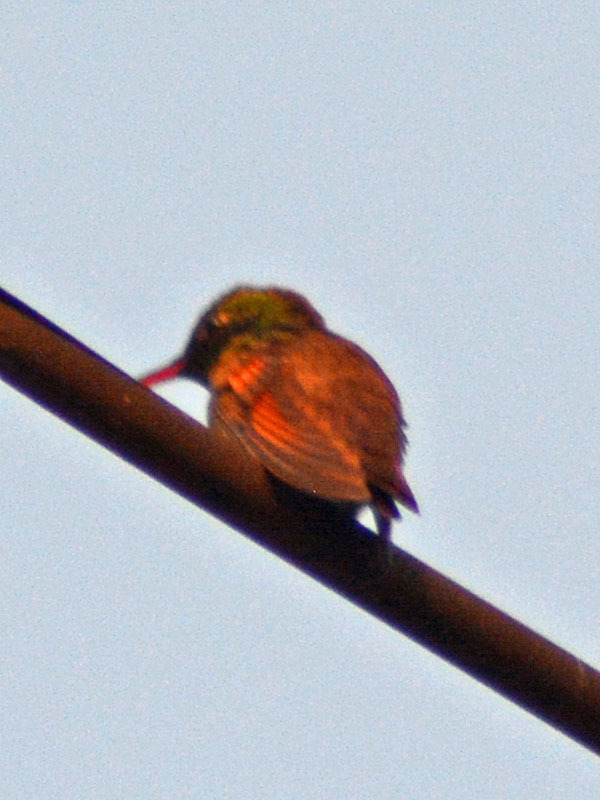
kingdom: Animalia
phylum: Chordata
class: Aves
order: Apodiformes
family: Trochilidae
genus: Saucerottia
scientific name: Saucerottia beryllina
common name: Berylline hummingbird
